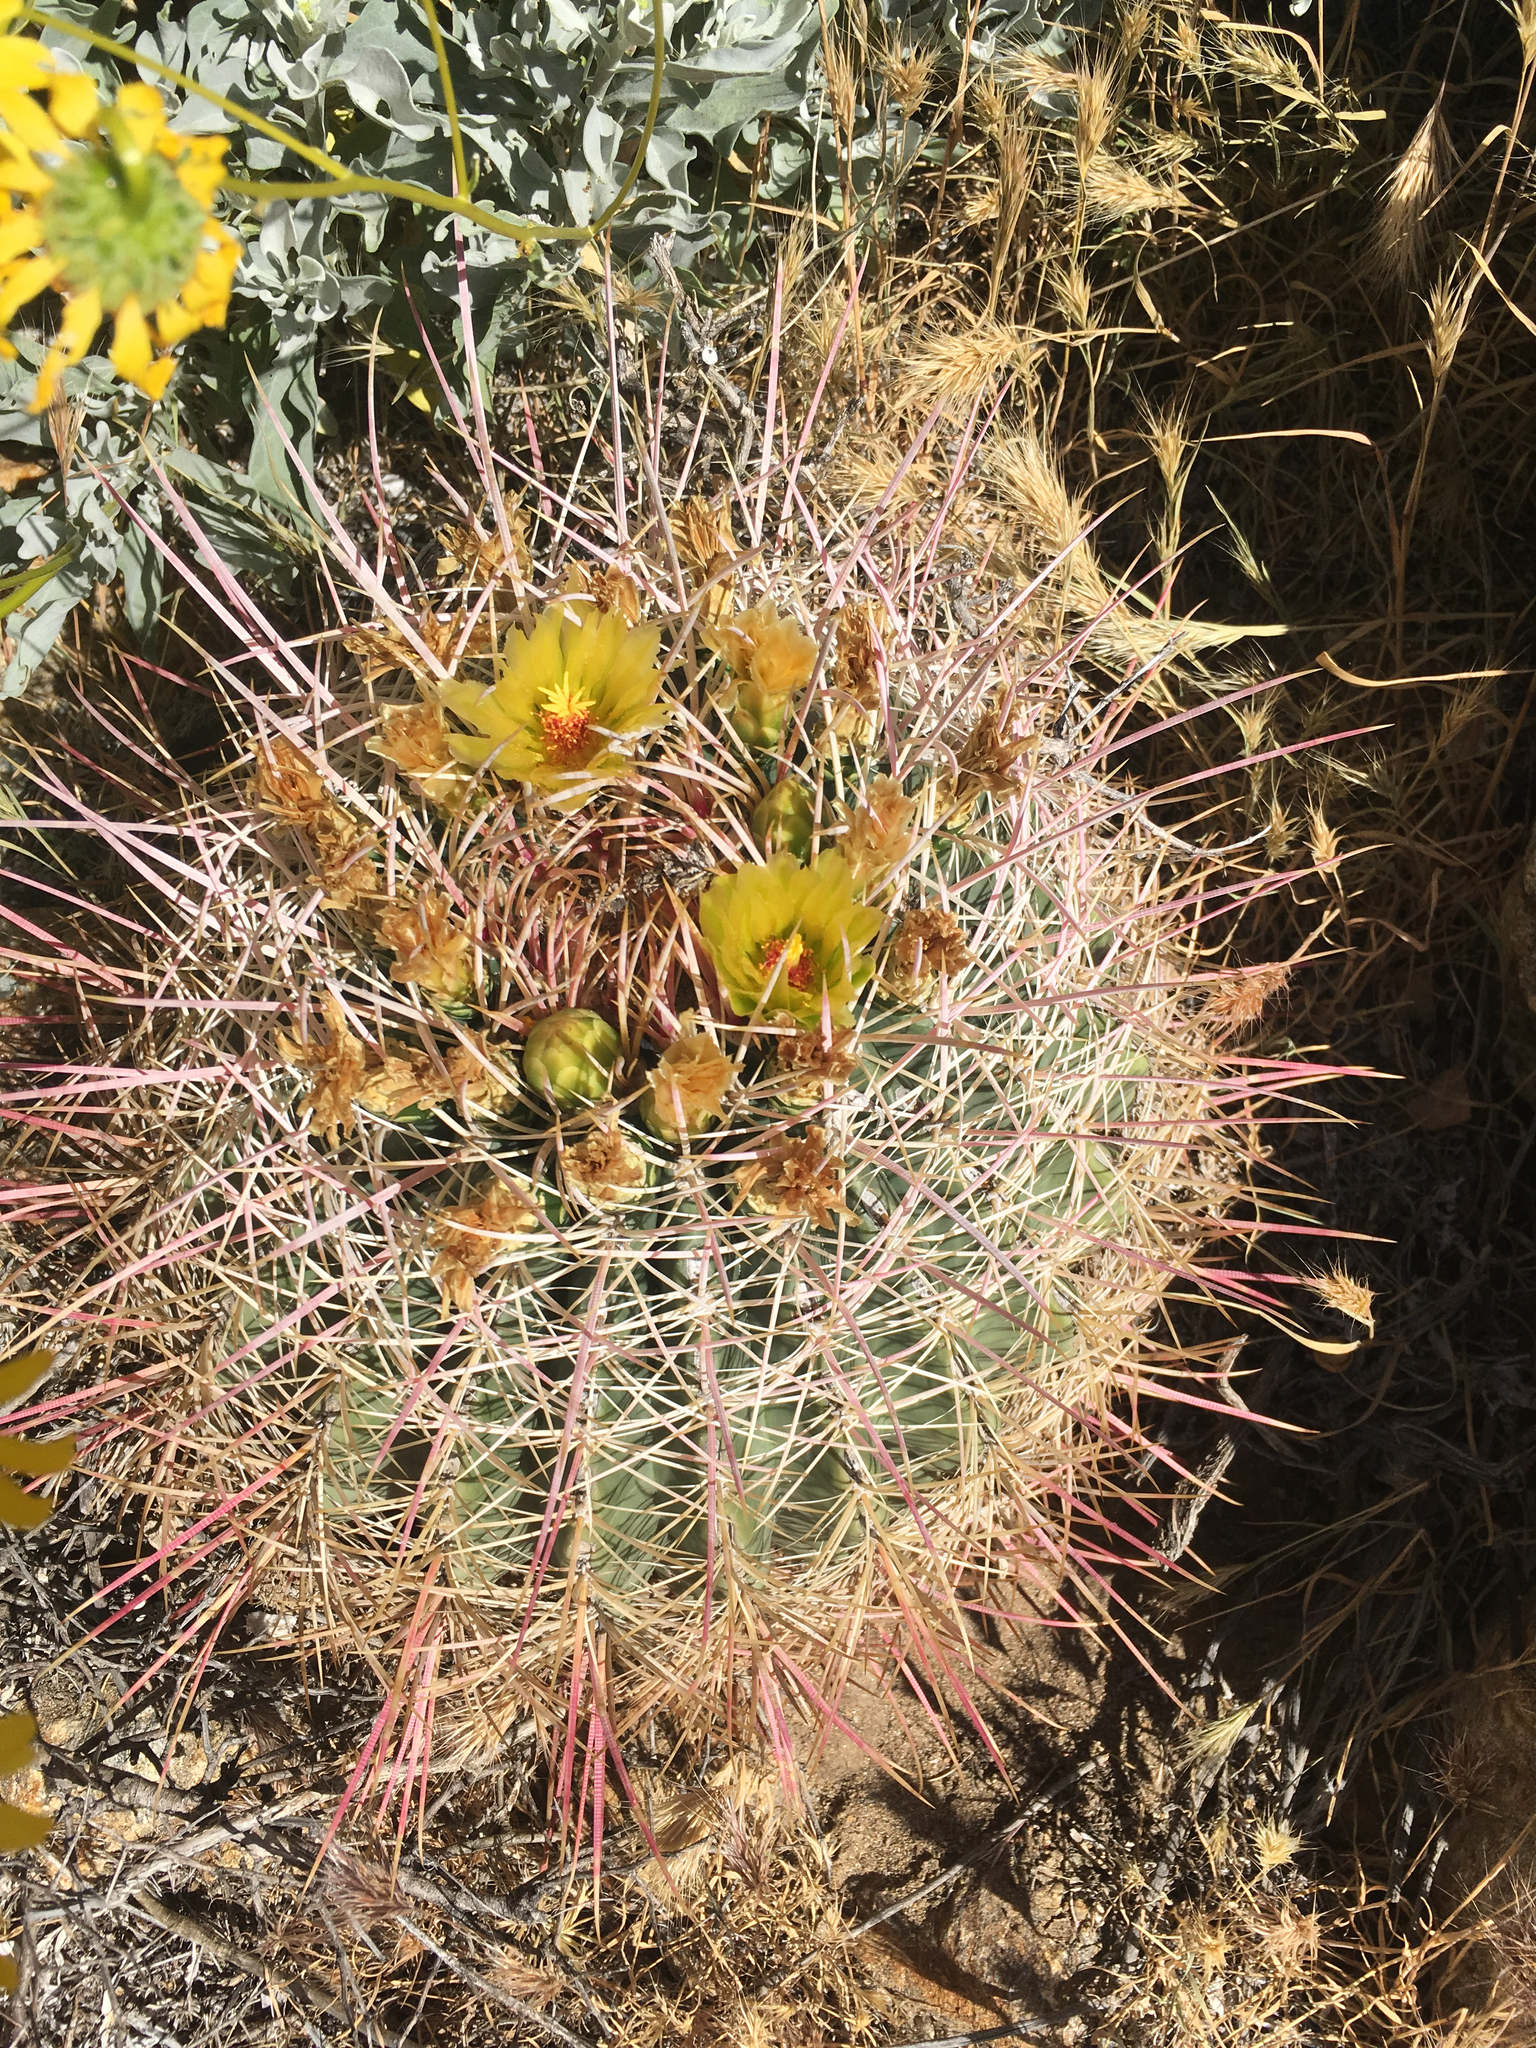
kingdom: Plantae
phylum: Tracheophyta
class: Magnoliopsida
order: Caryophyllales
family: Cactaceae
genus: Ferocactus
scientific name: Ferocactus cylindraceus
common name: California barrel cactus
